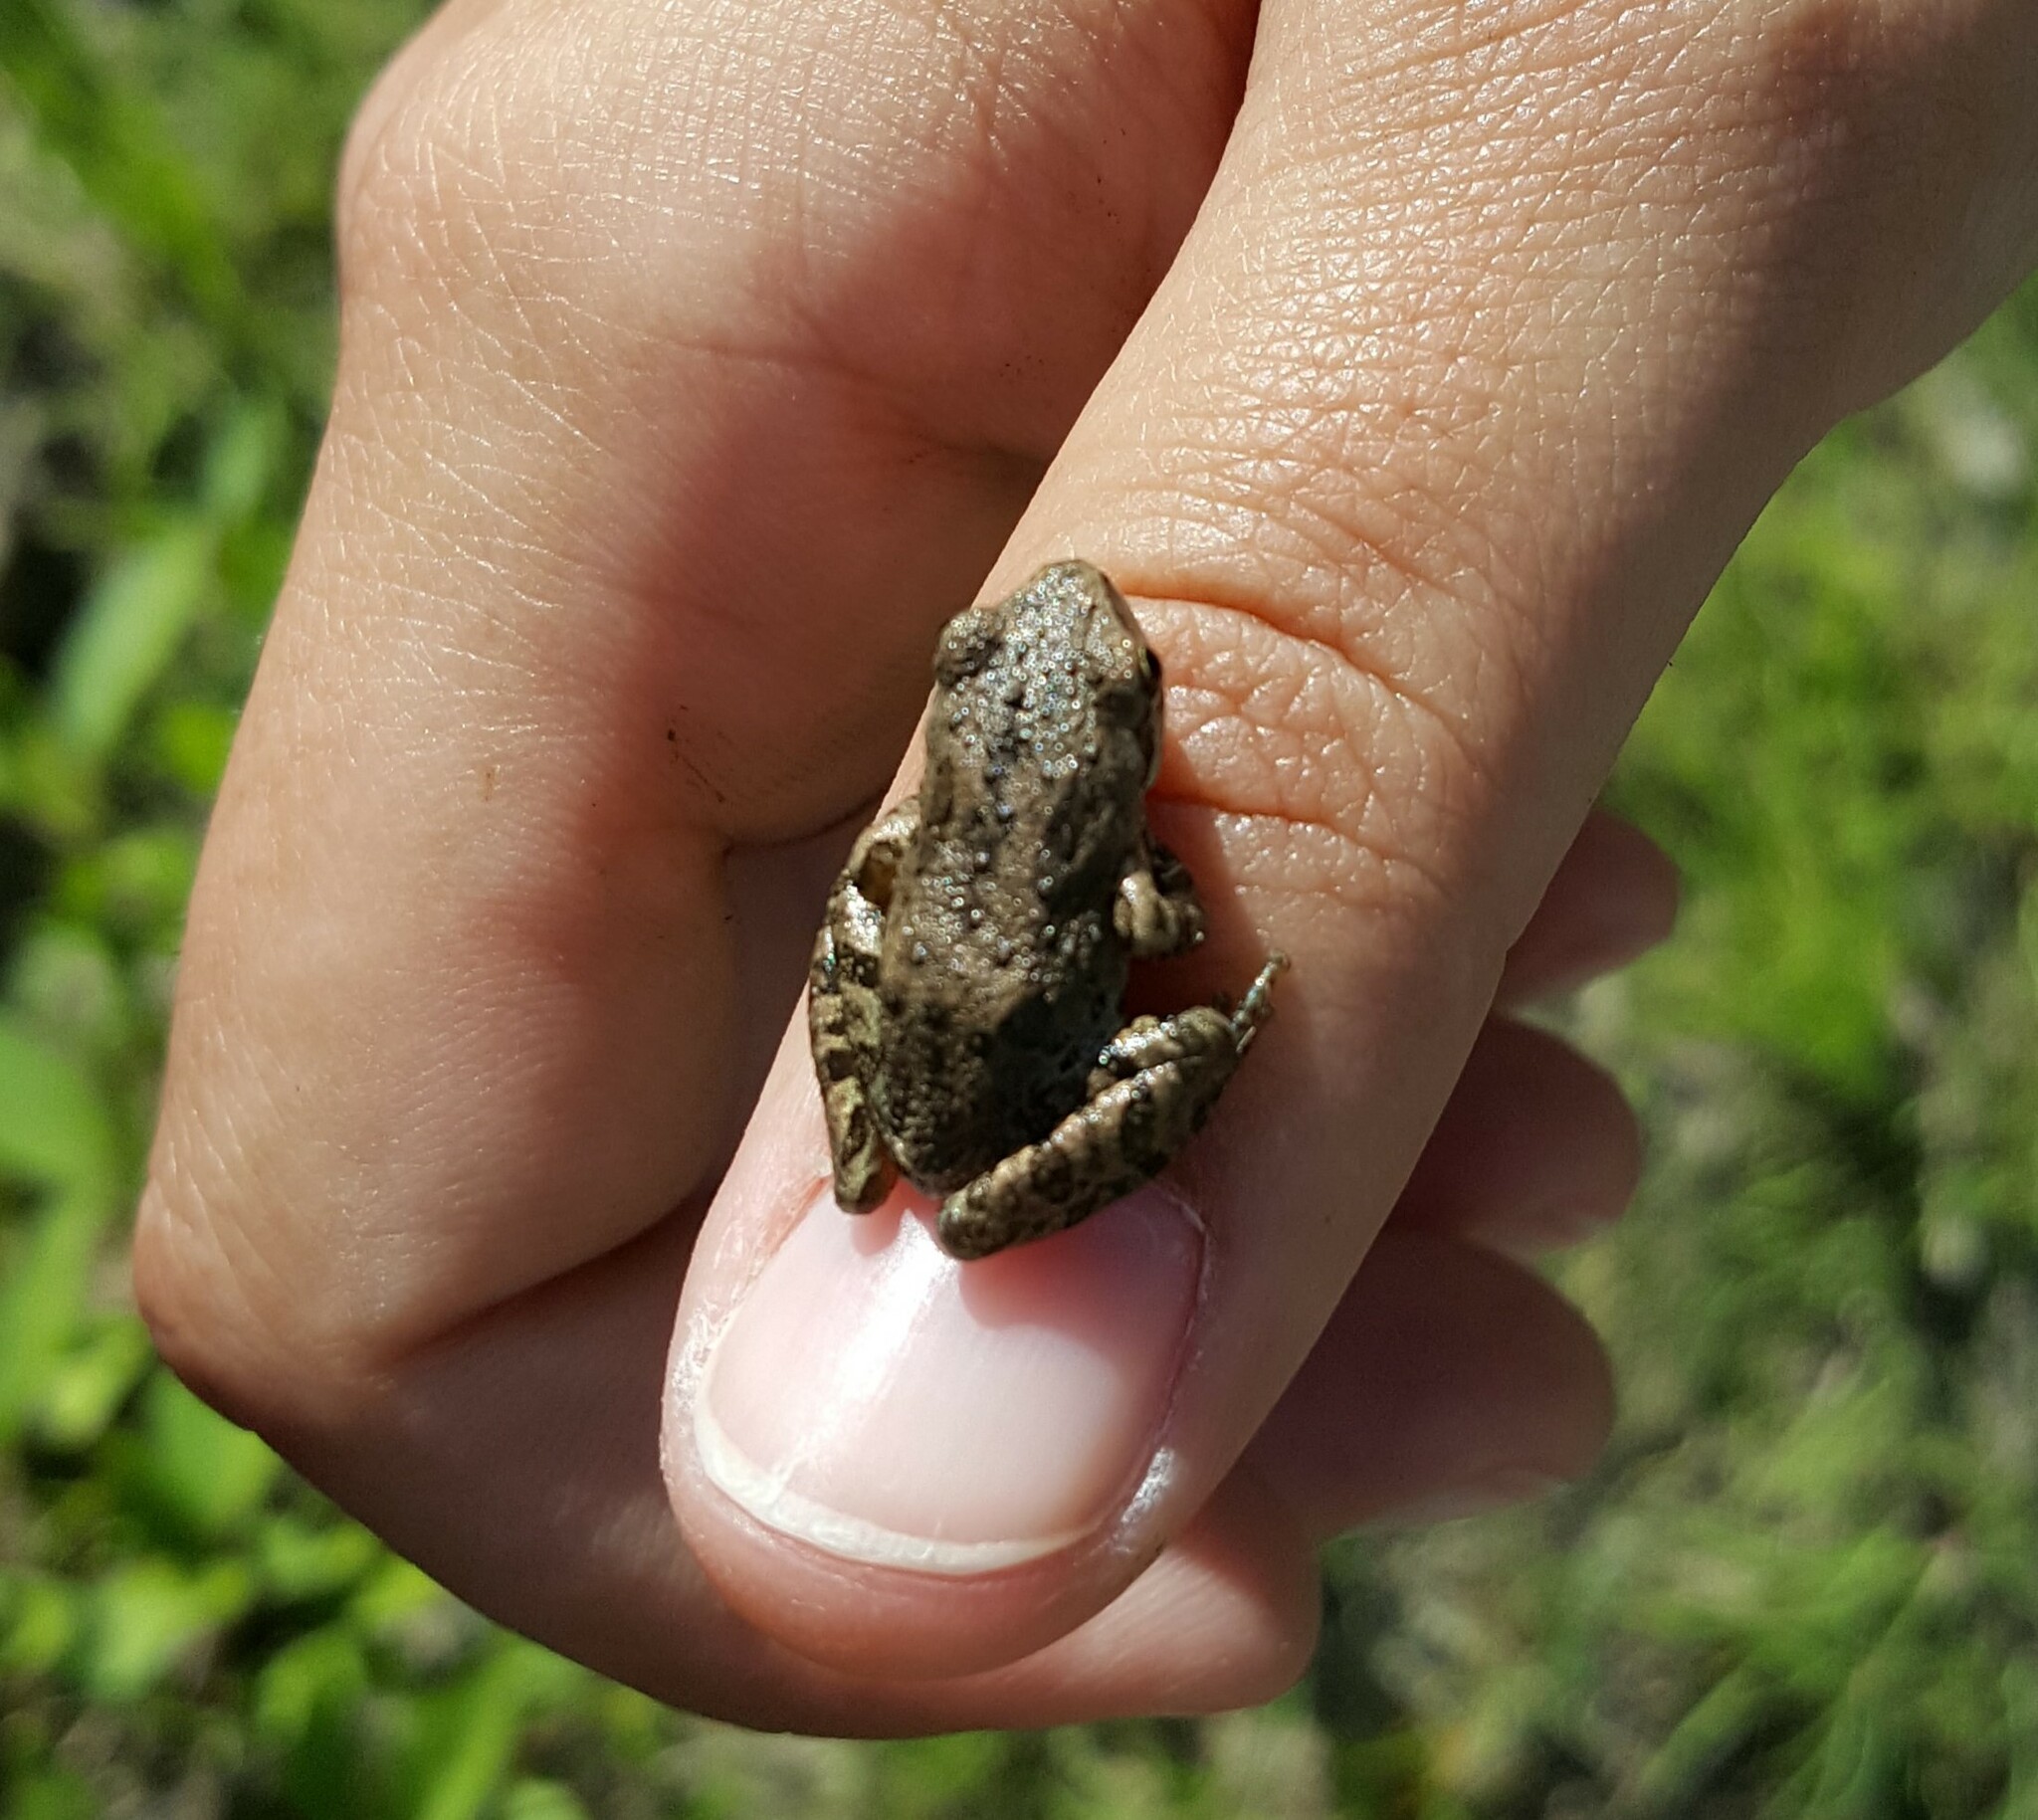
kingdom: Animalia
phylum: Chordata
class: Amphibia
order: Anura
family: Hylidae
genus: Pseudacris
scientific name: Pseudacris regilla
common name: Pacific chorus frog
